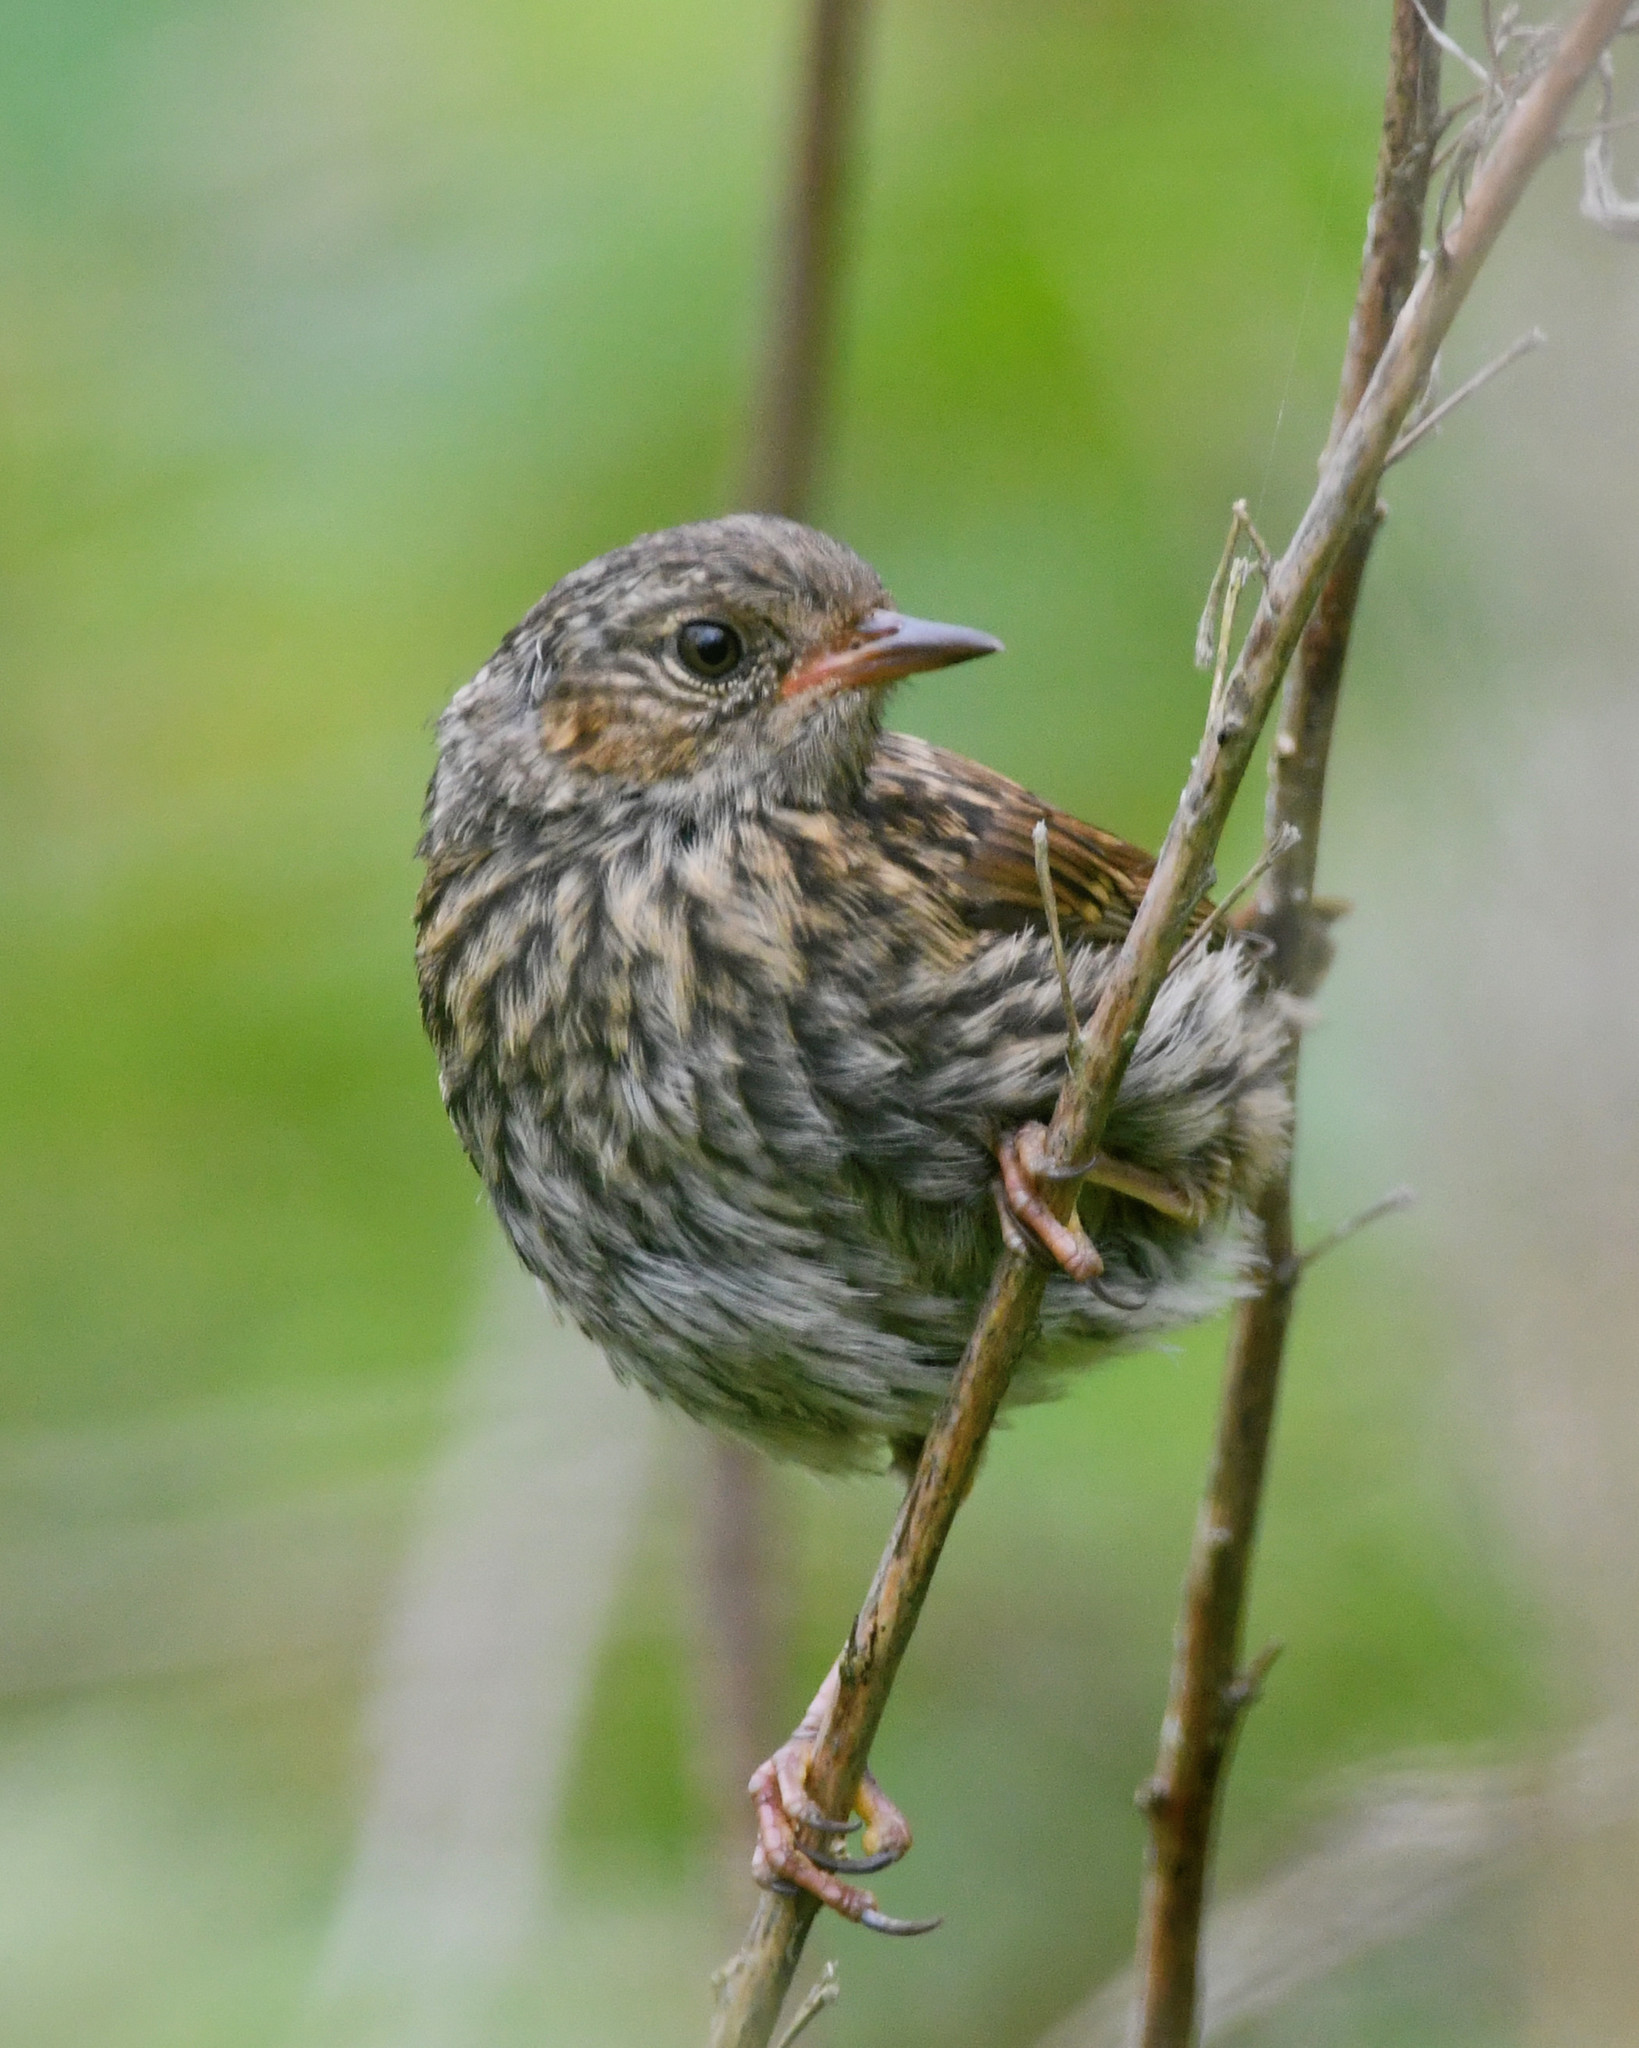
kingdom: Animalia
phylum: Chordata
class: Aves
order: Passeriformes
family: Prunellidae
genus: Prunella
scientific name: Prunella modularis
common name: Dunnock
